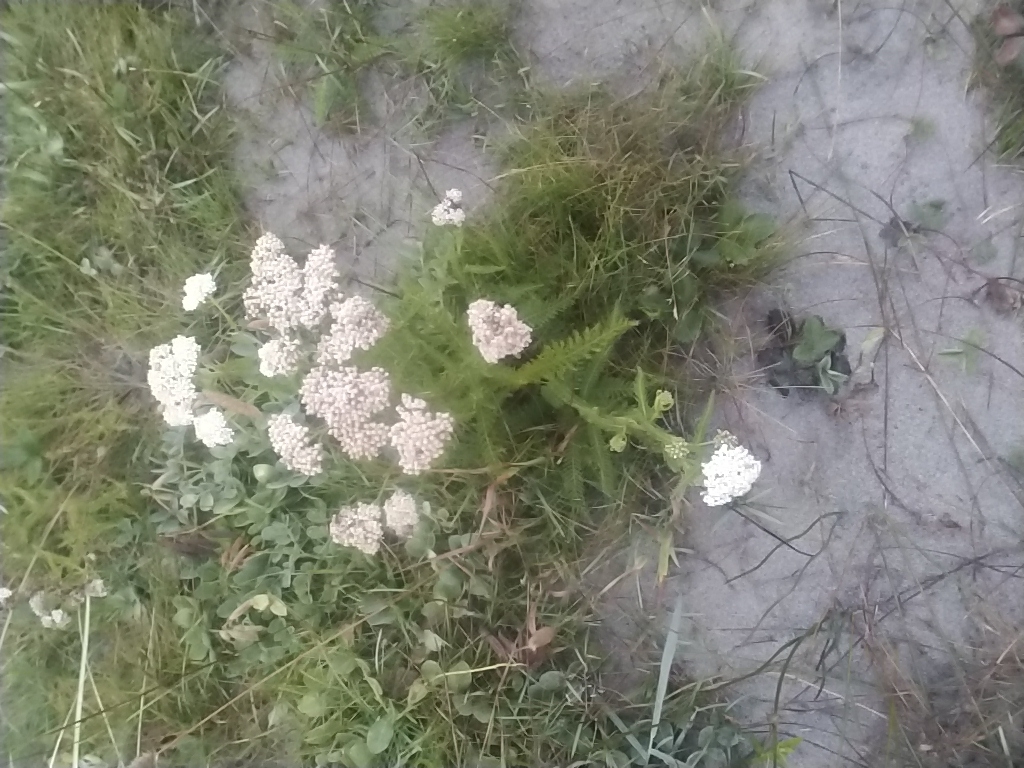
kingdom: Plantae
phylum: Tracheophyta
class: Magnoliopsida
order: Asterales
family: Asteraceae
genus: Achillea
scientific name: Achillea millefolium
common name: Yarrow
